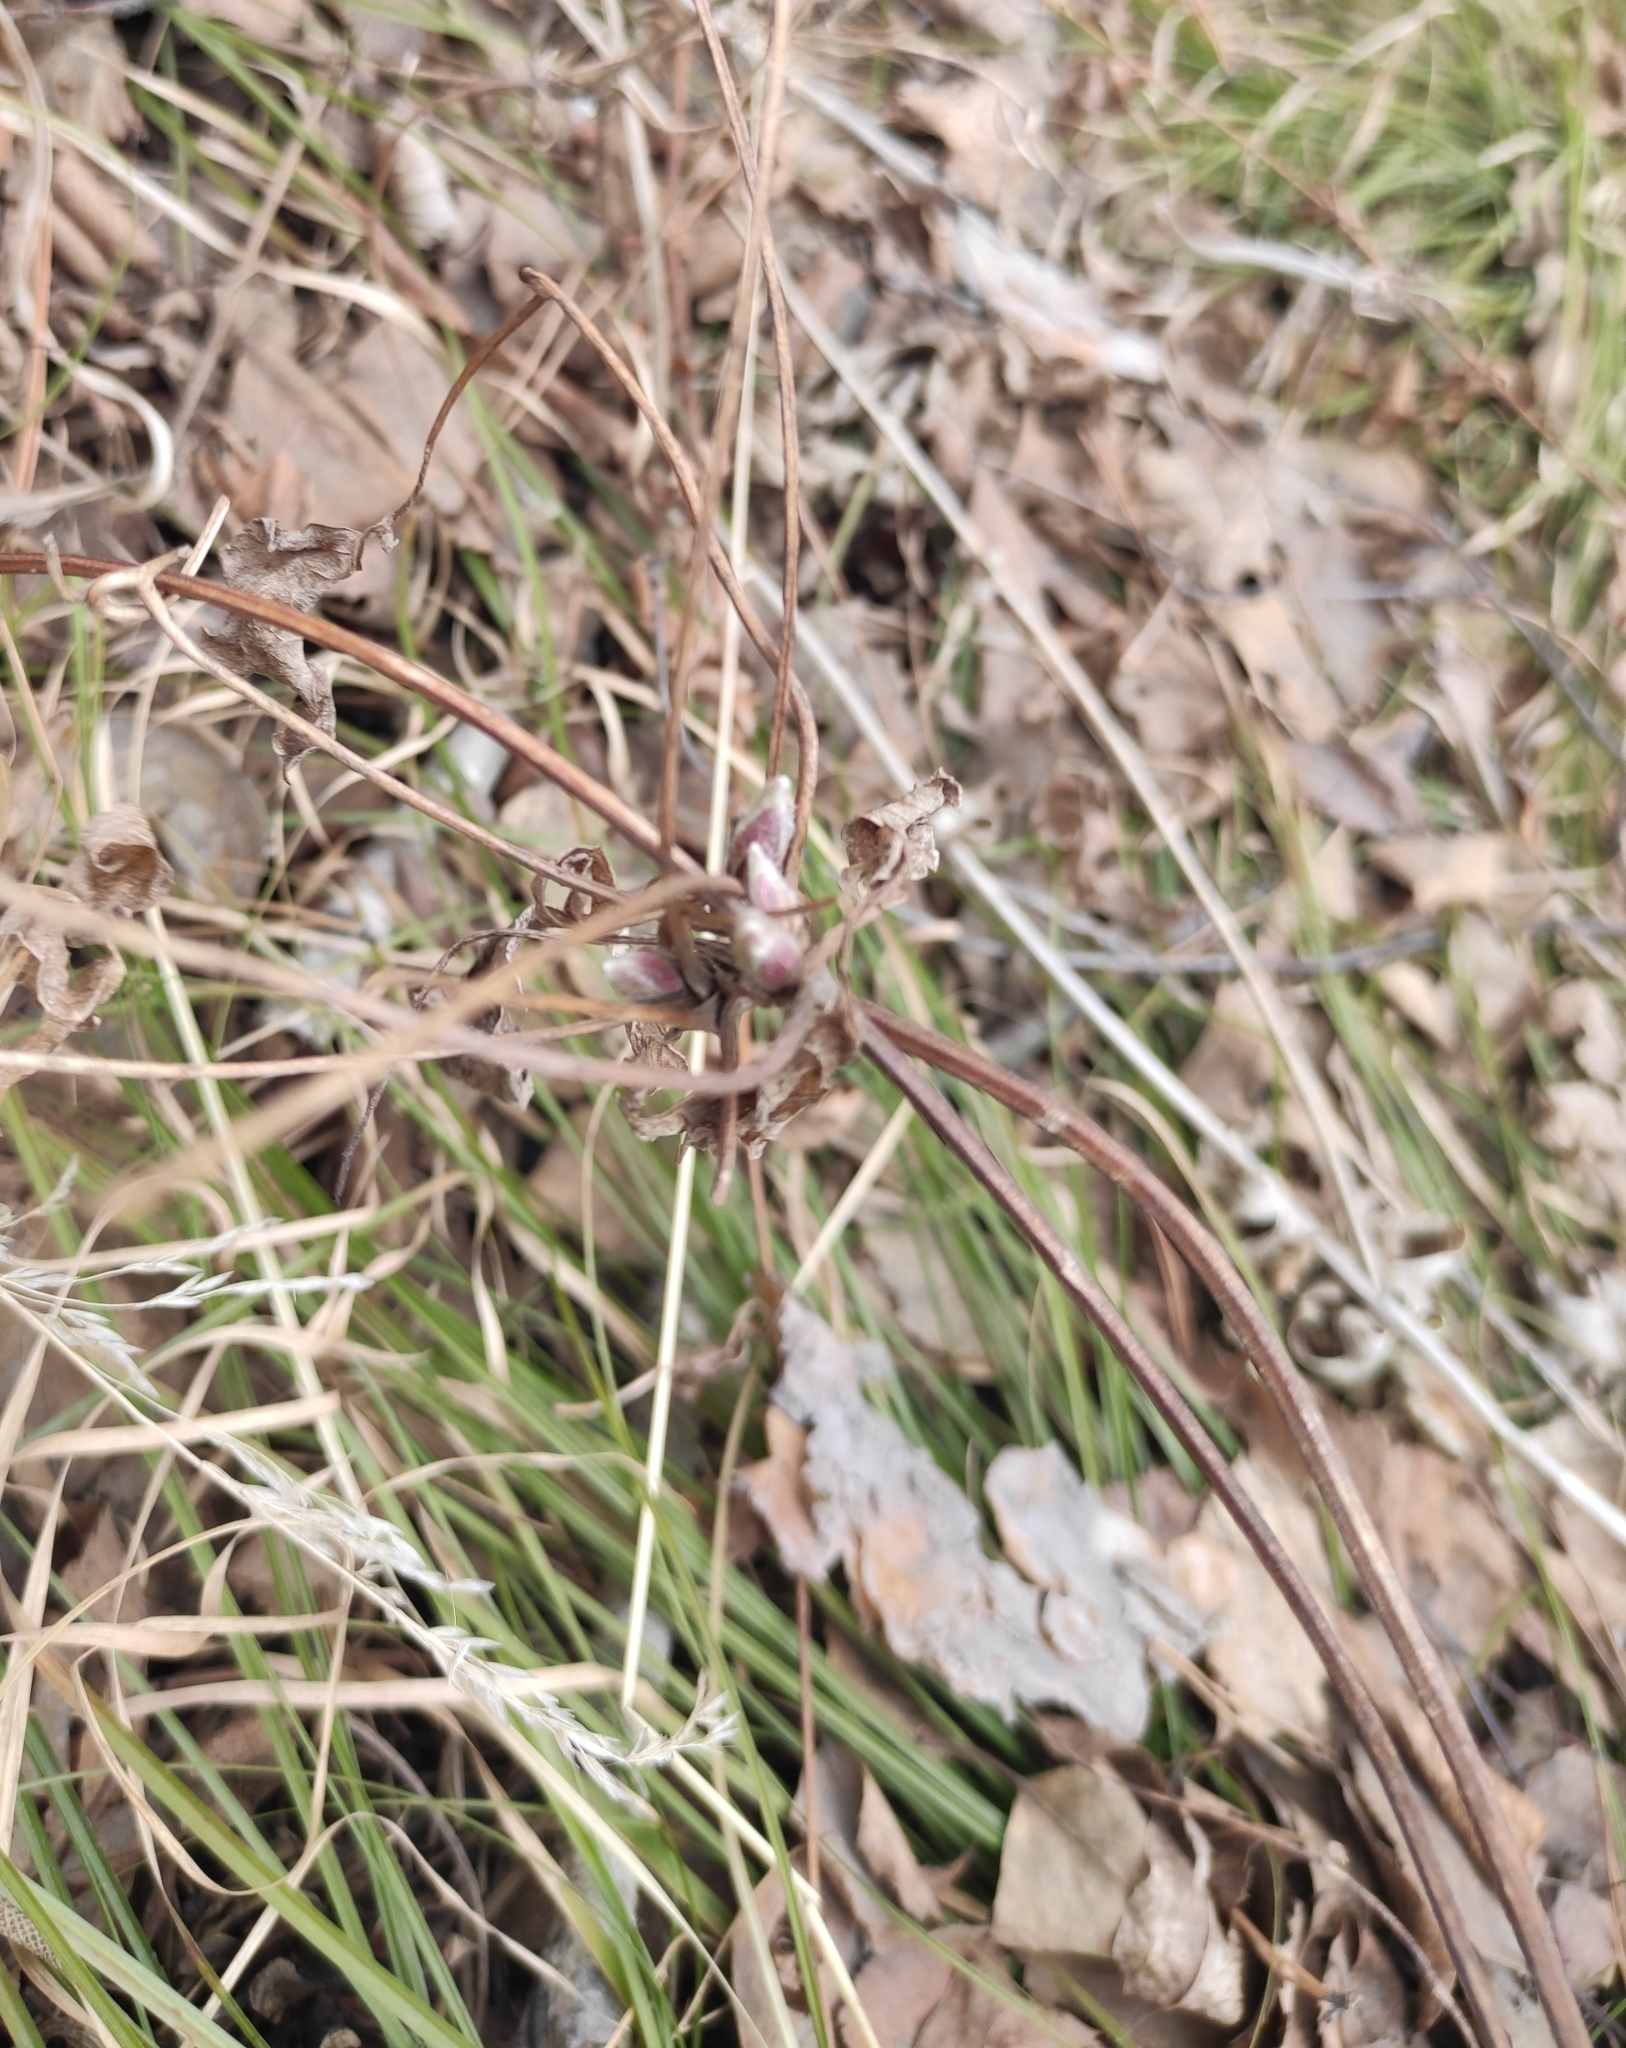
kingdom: Plantae
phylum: Tracheophyta
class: Magnoliopsida
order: Ranunculales
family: Ranunculaceae
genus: Clematis
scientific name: Clematis sibirica
